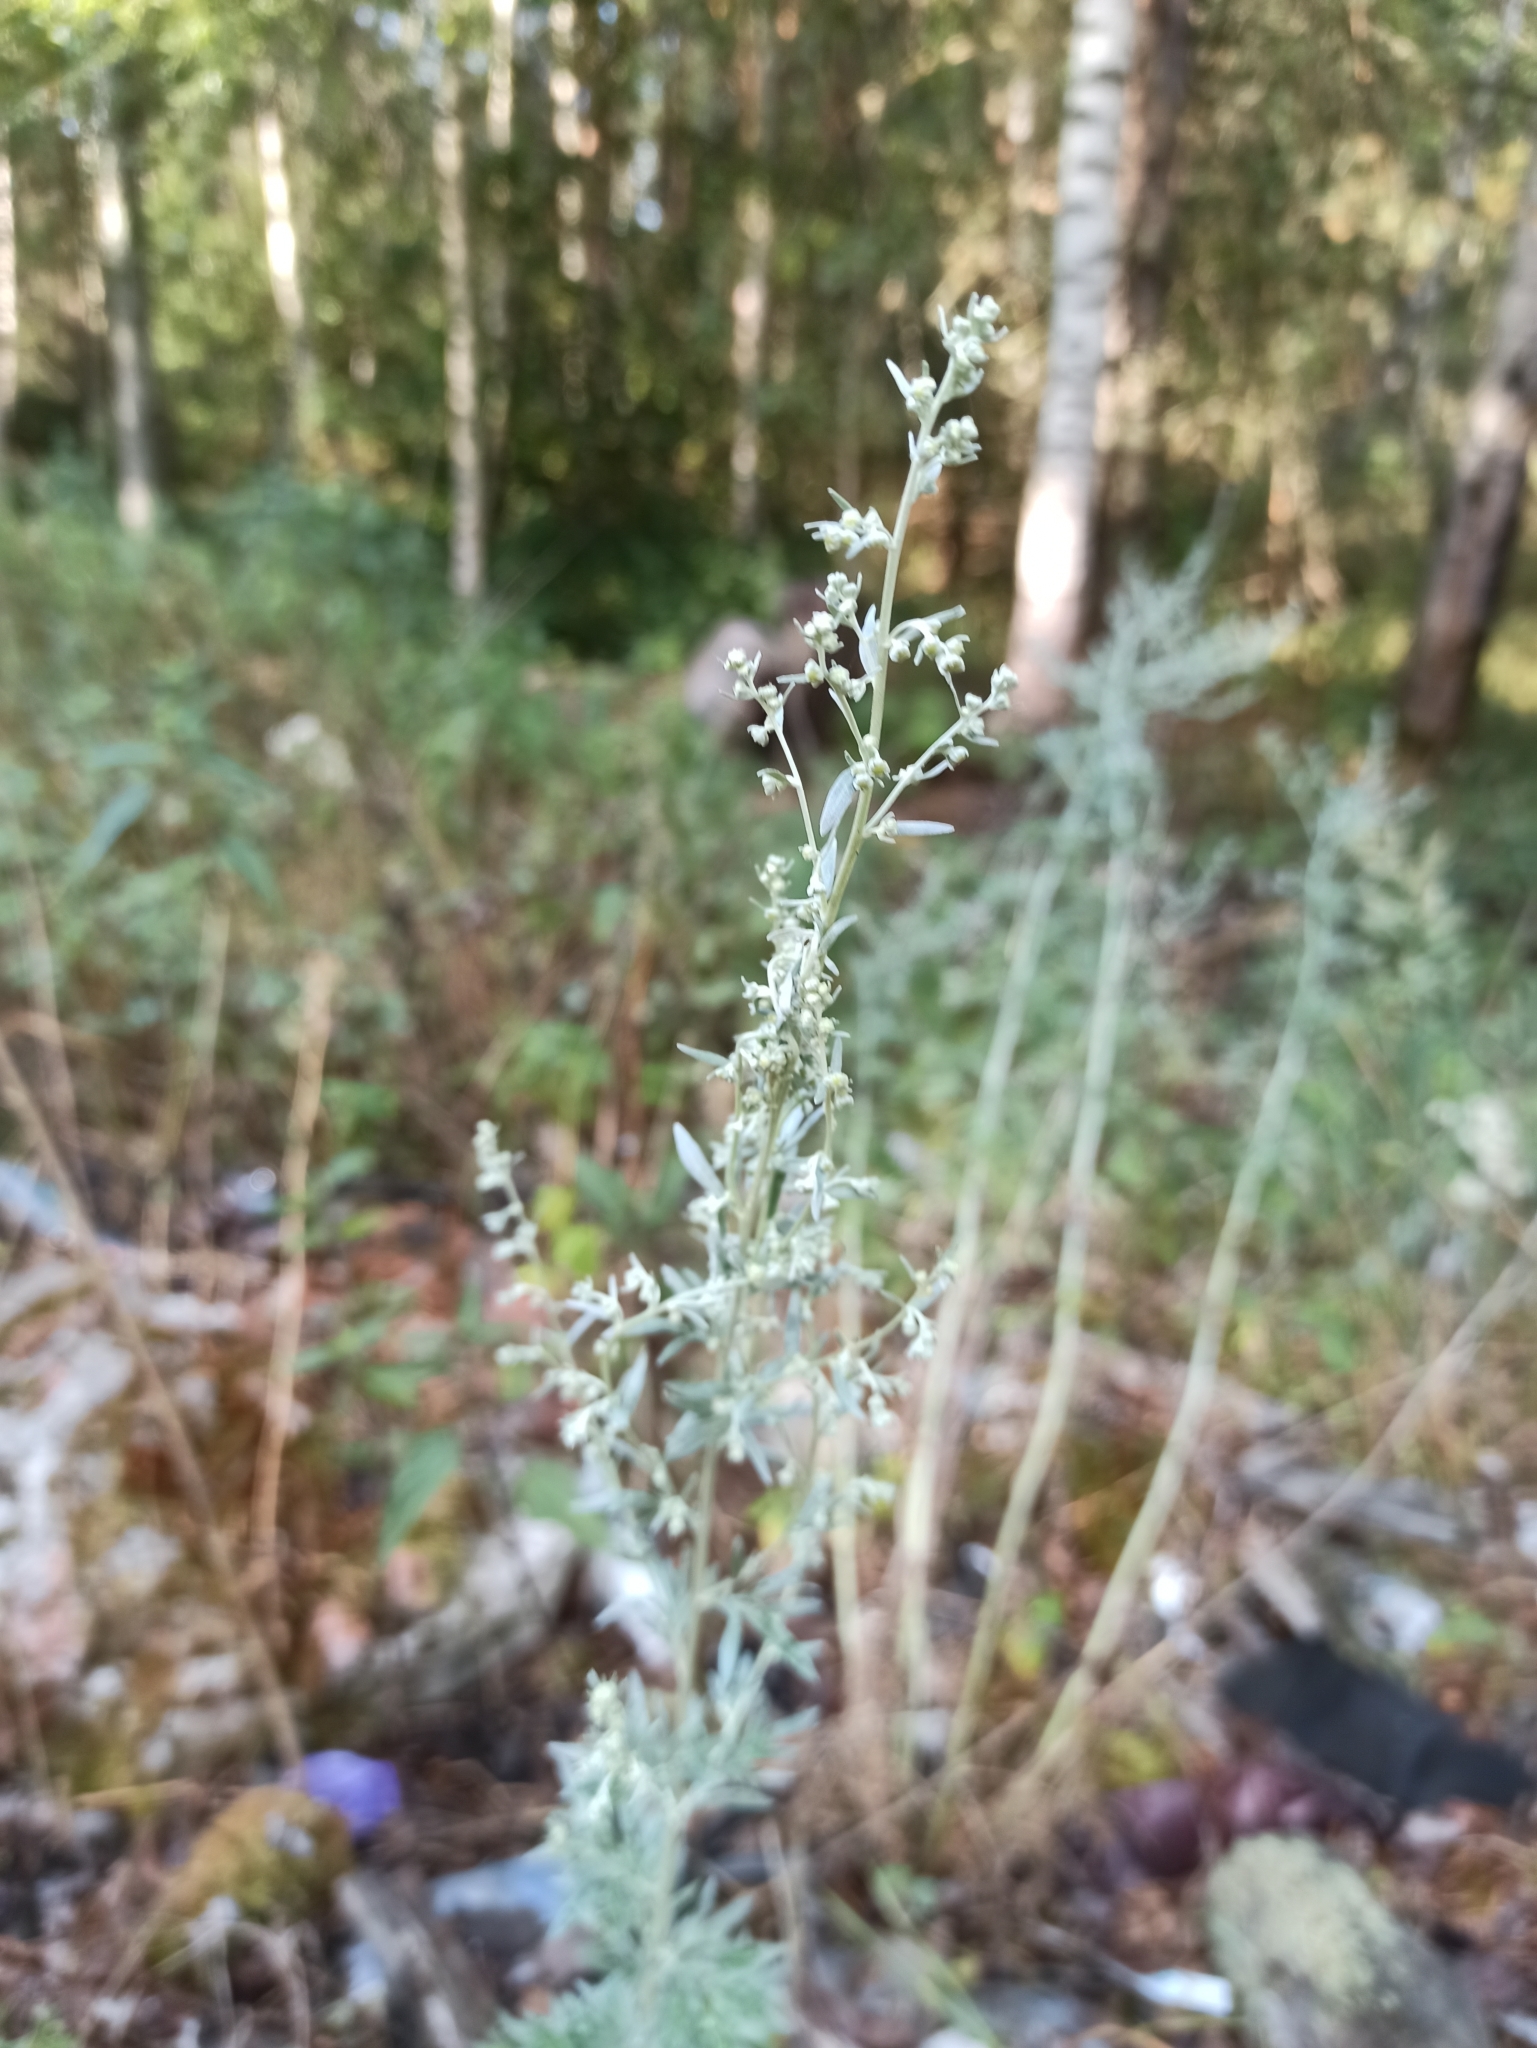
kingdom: Plantae
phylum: Tracheophyta
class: Magnoliopsida
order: Asterales
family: Asteraceae
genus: Artemisia
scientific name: Artemisia absinthium
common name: Wormwood
